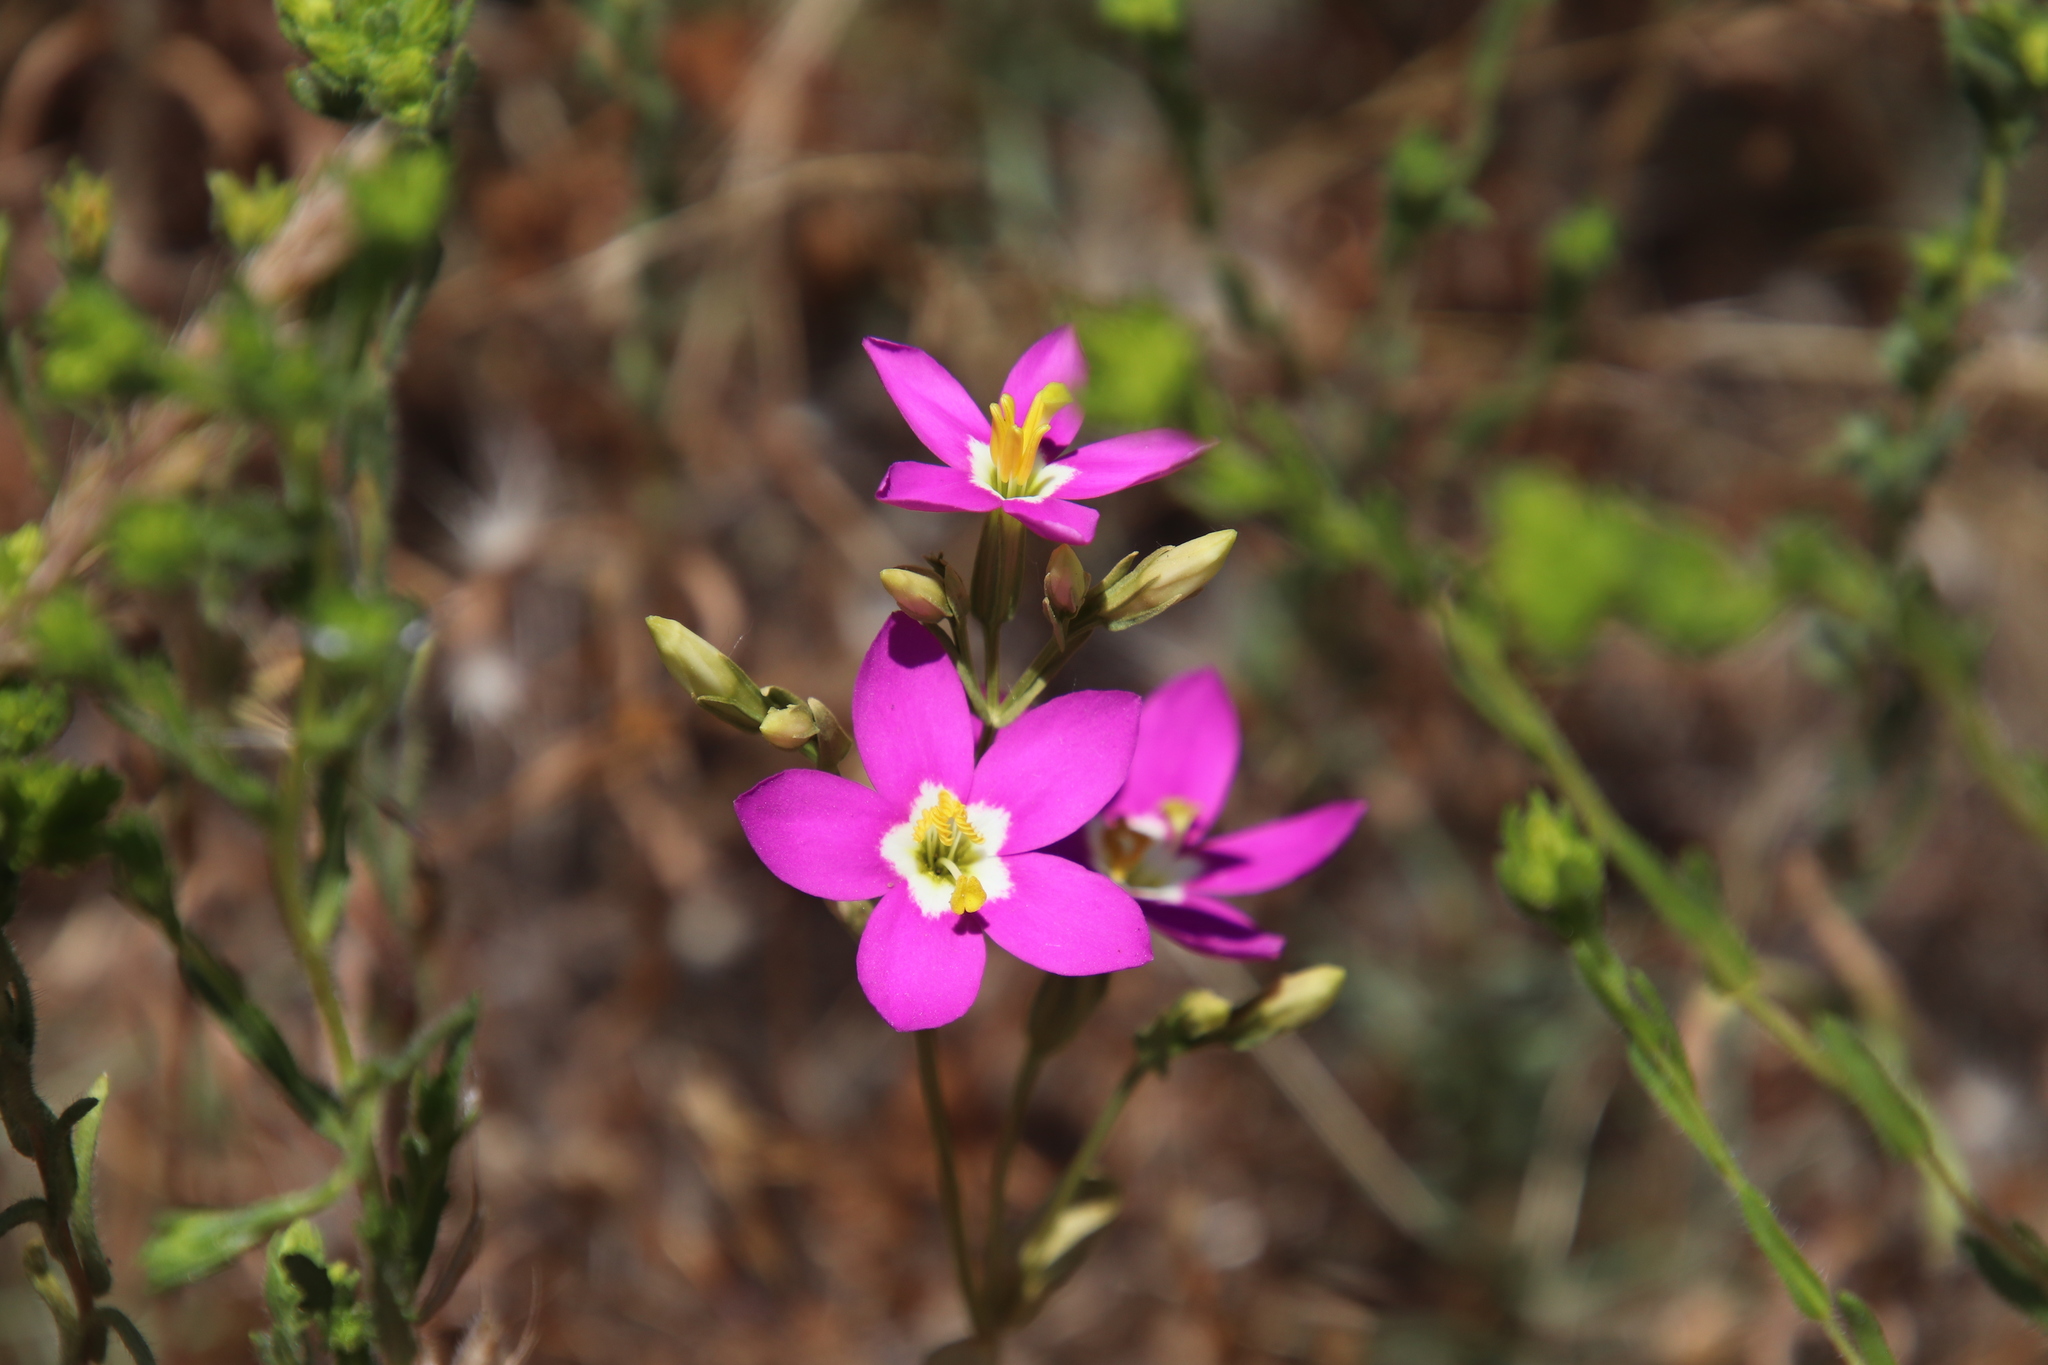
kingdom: Plantae
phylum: Tracheophyta
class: Magnoliopsida
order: Gentianales
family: Gentianaceae
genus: Zeltnera
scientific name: Zeltnera venusta
